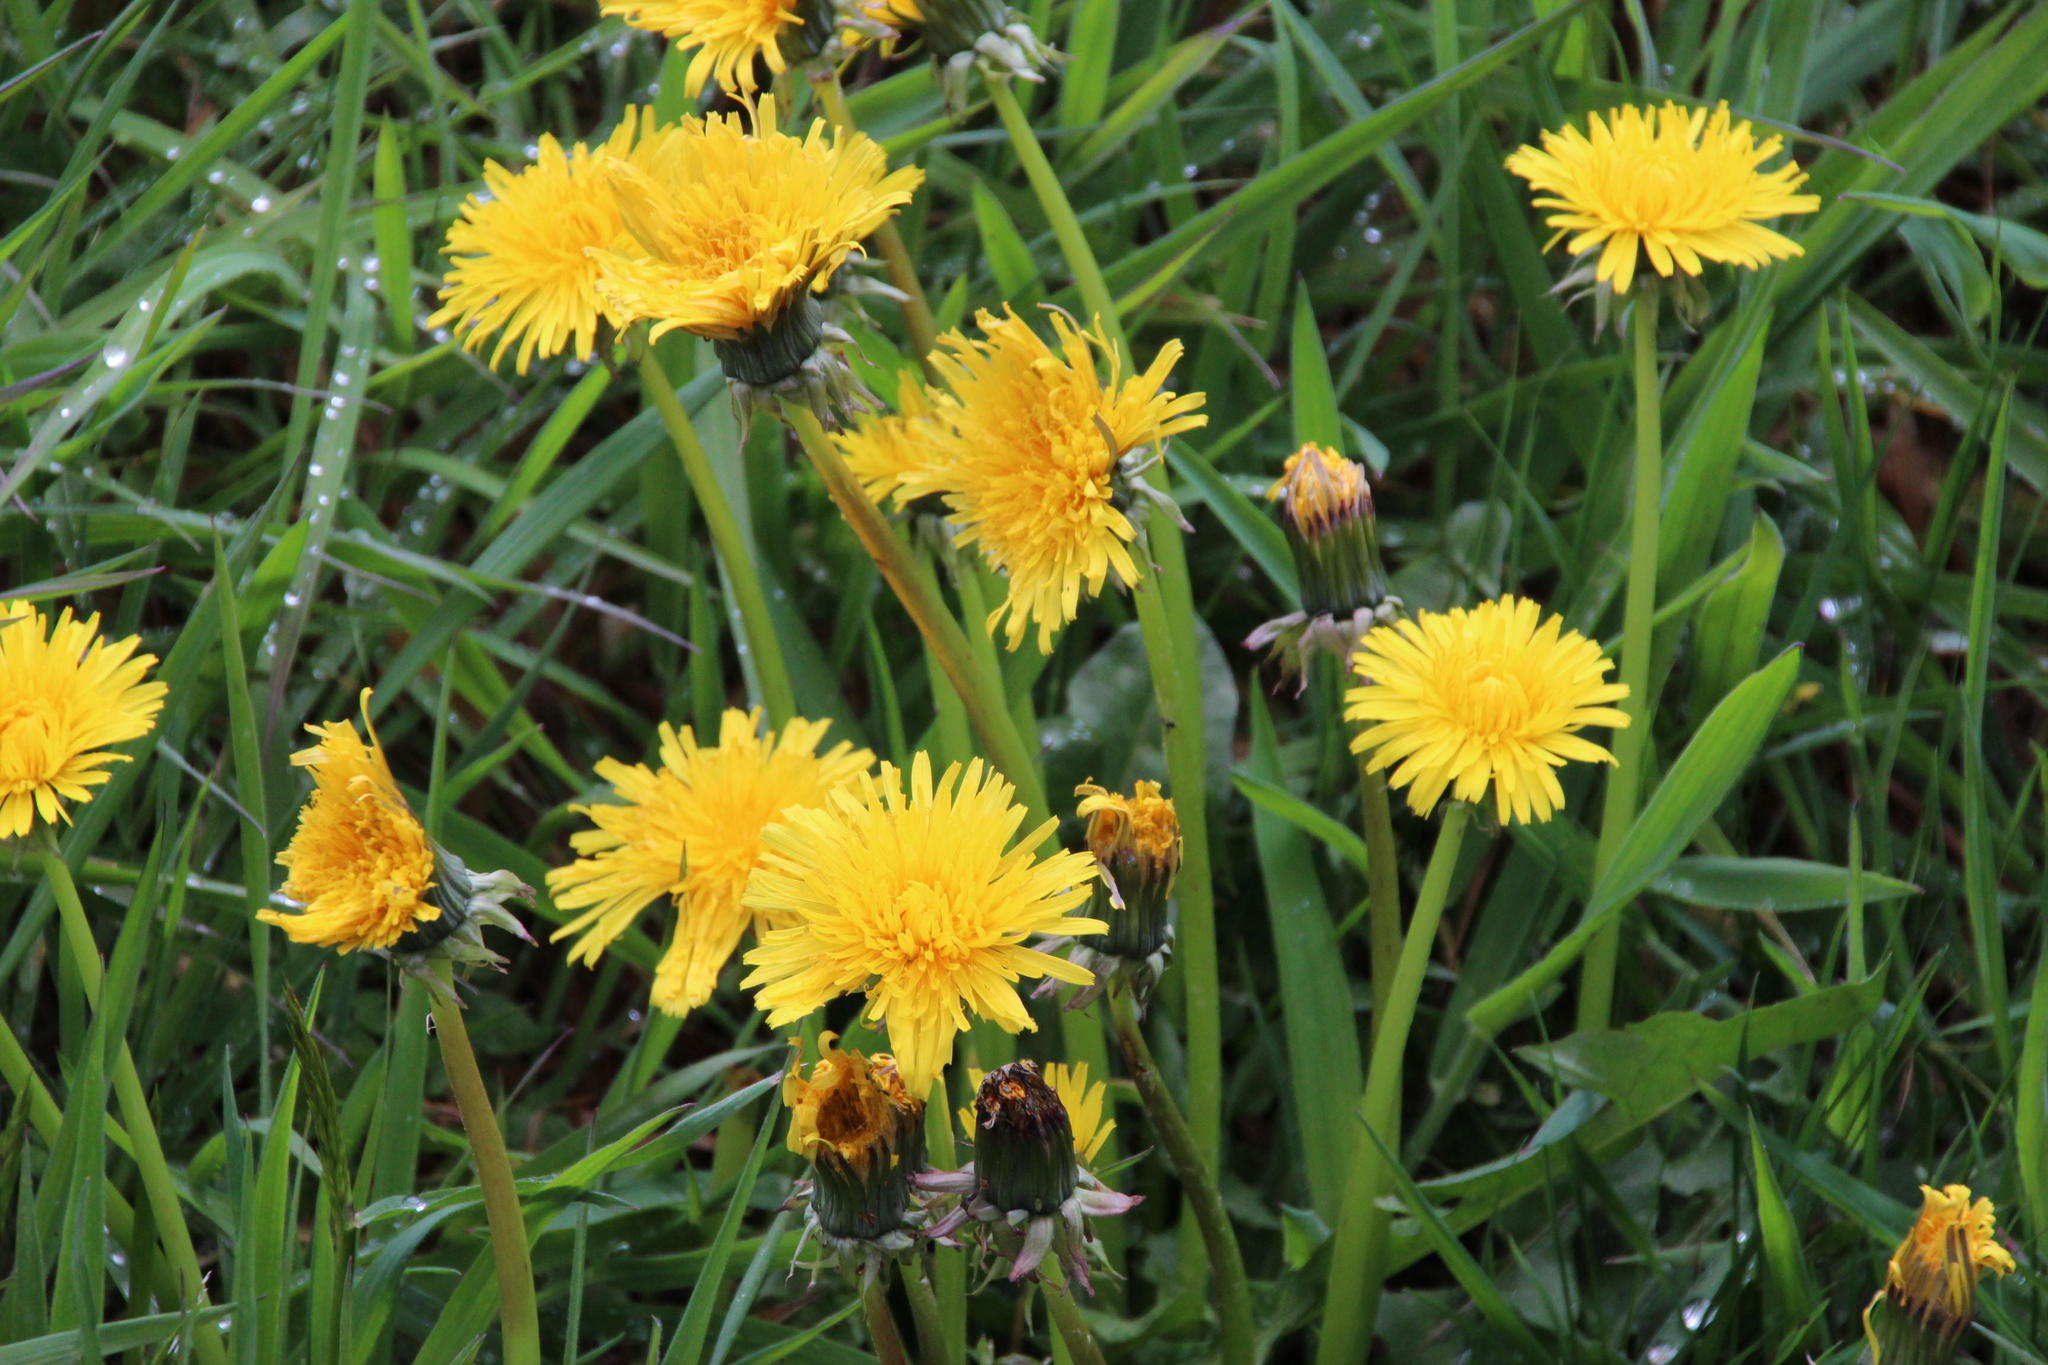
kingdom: Plantae
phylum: Tracheophyta
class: Magnoliopsida
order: Asterales
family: Asteraceae
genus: Taraxacum
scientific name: Taraxacum officinale
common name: Common dandelion
